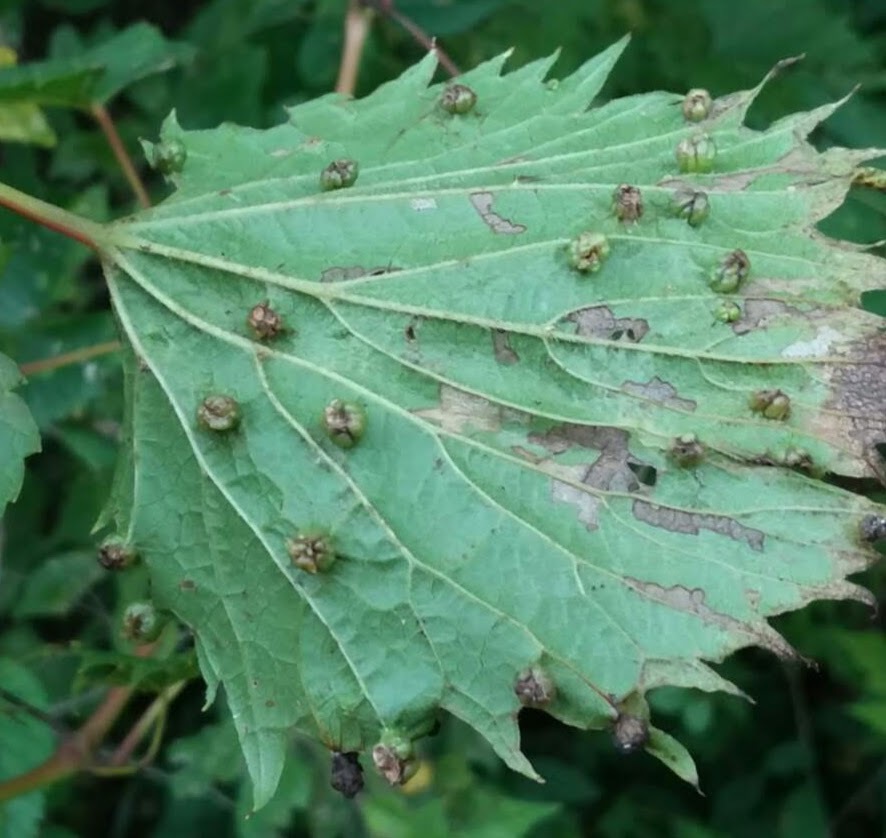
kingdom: Animalia
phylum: Arthropoda
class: Insecta
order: Hemiptera
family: Phylloxeridae
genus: Daktulosphaira
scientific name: Daktulosphaira vitifoliae
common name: Grape phylloxera
